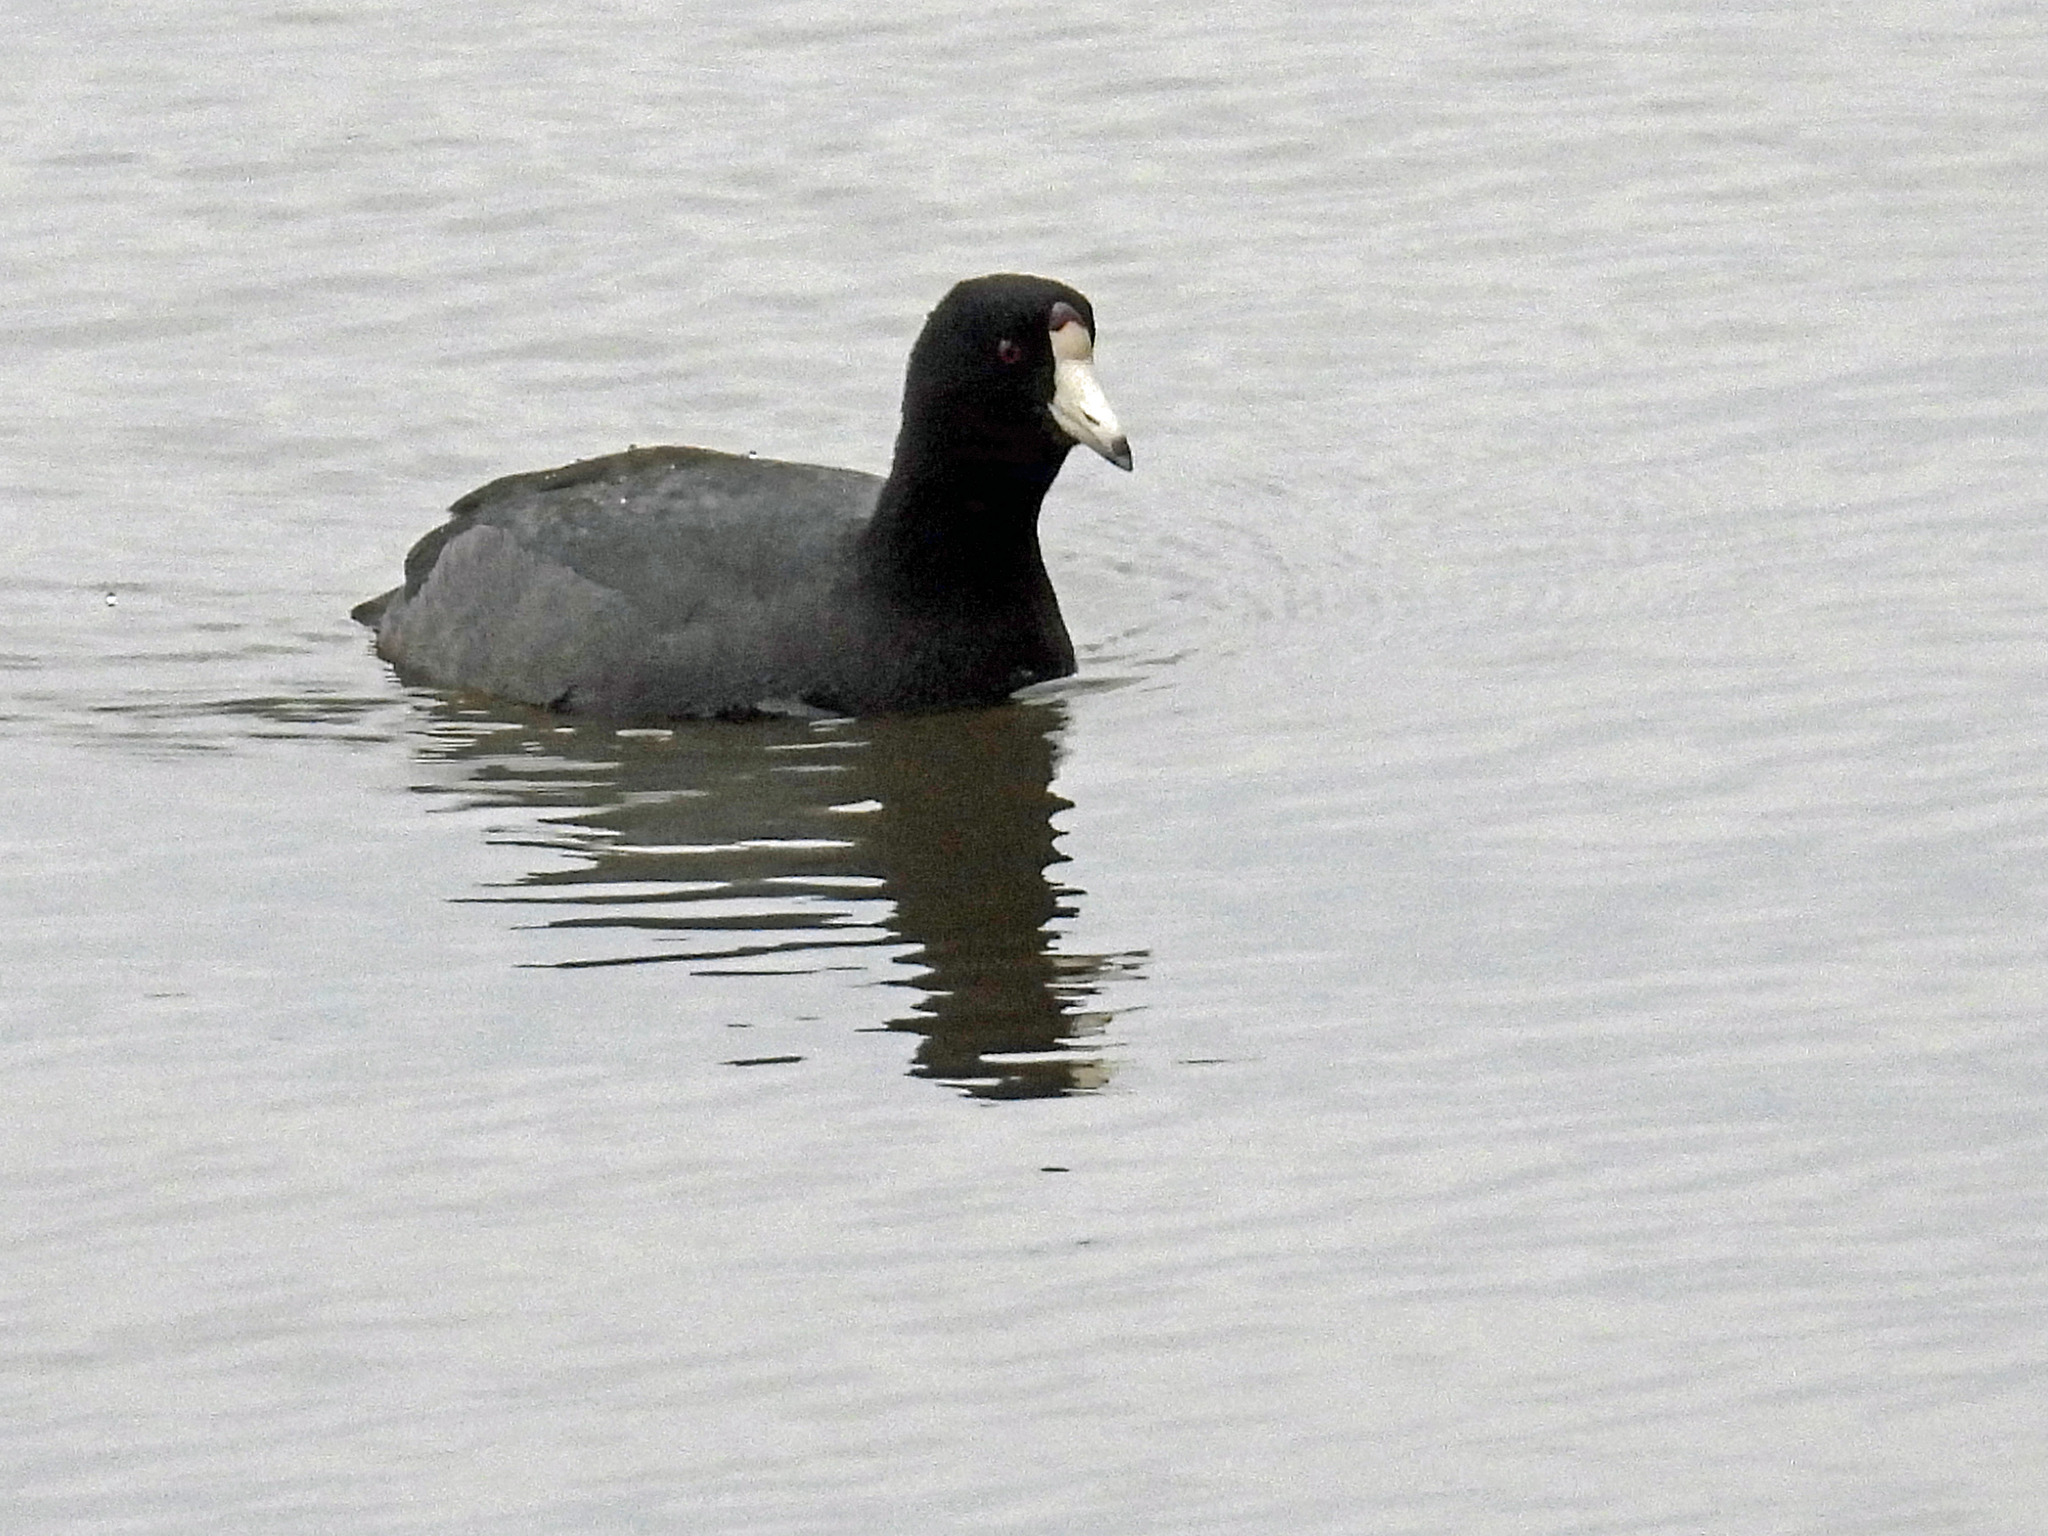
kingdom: Animalia
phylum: Chordata
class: Aves
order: Gruiformes
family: Rallidae
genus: Fulica
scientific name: Fulica americana
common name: American coot
